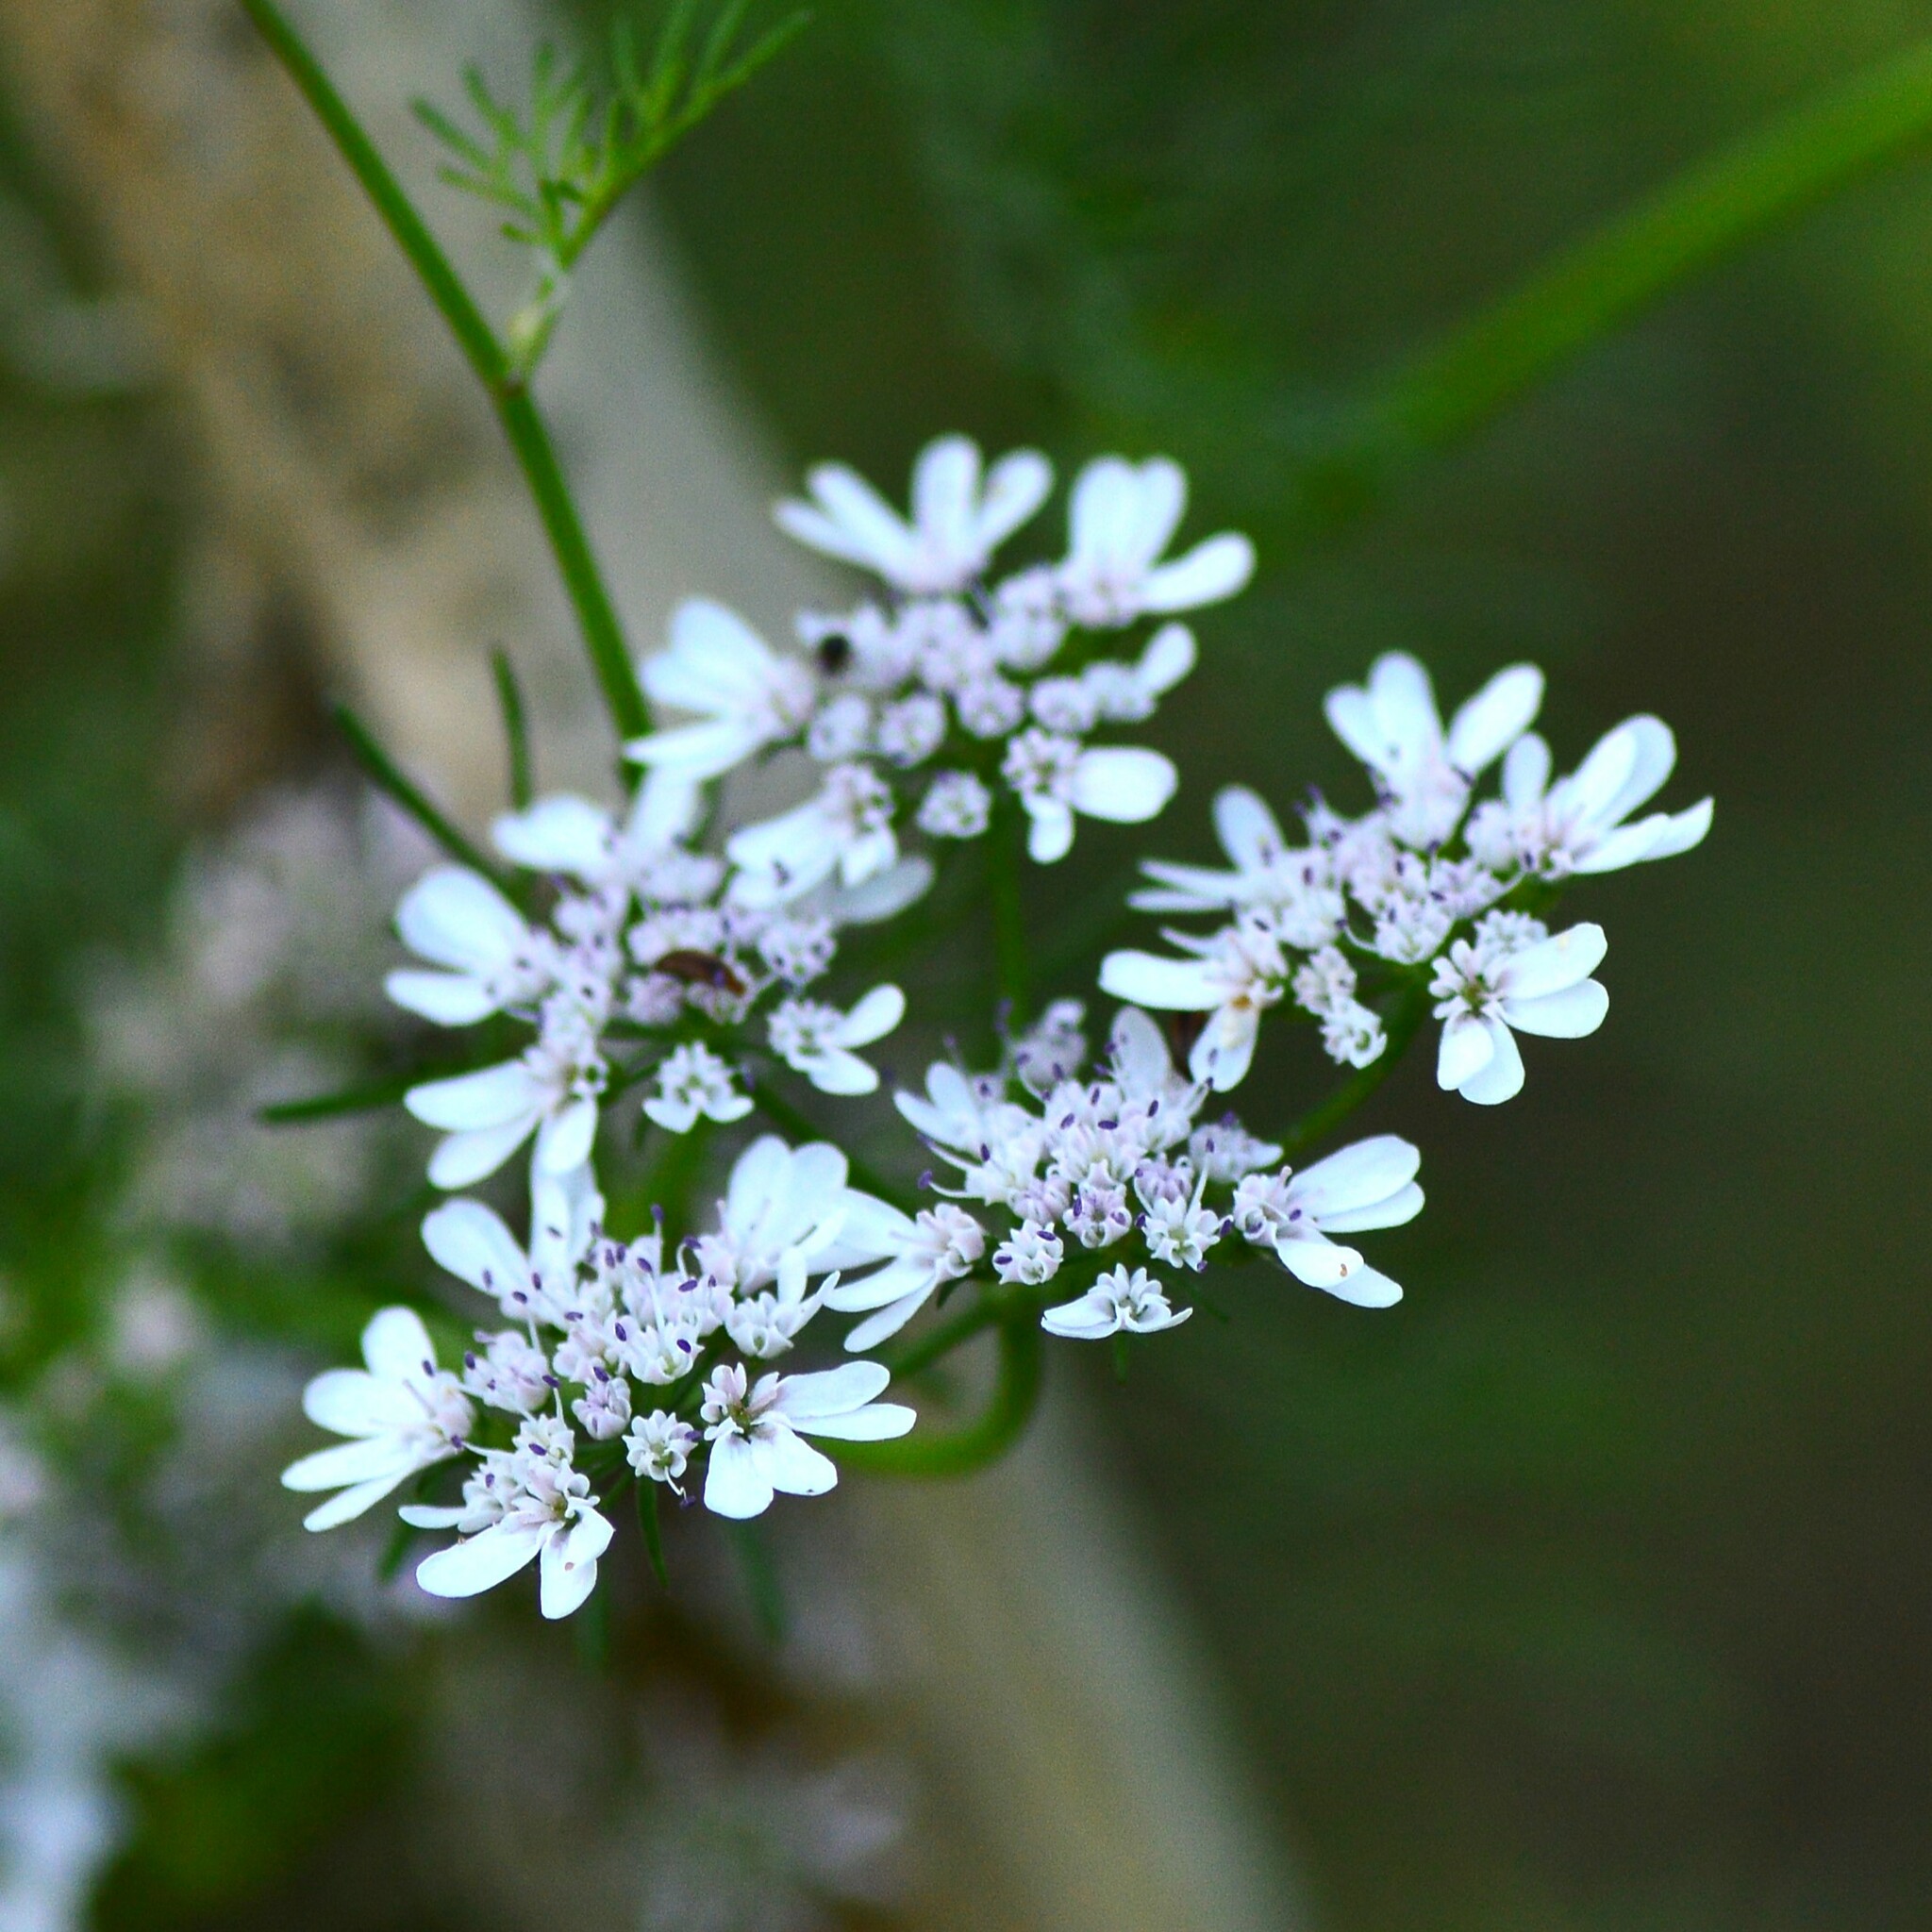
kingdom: Plantae
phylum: Tracheophyta
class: Magnoliopsida
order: Apiales
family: Apiaceae
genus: Coriandrum
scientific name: Coriandrum sativum
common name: Coriander
